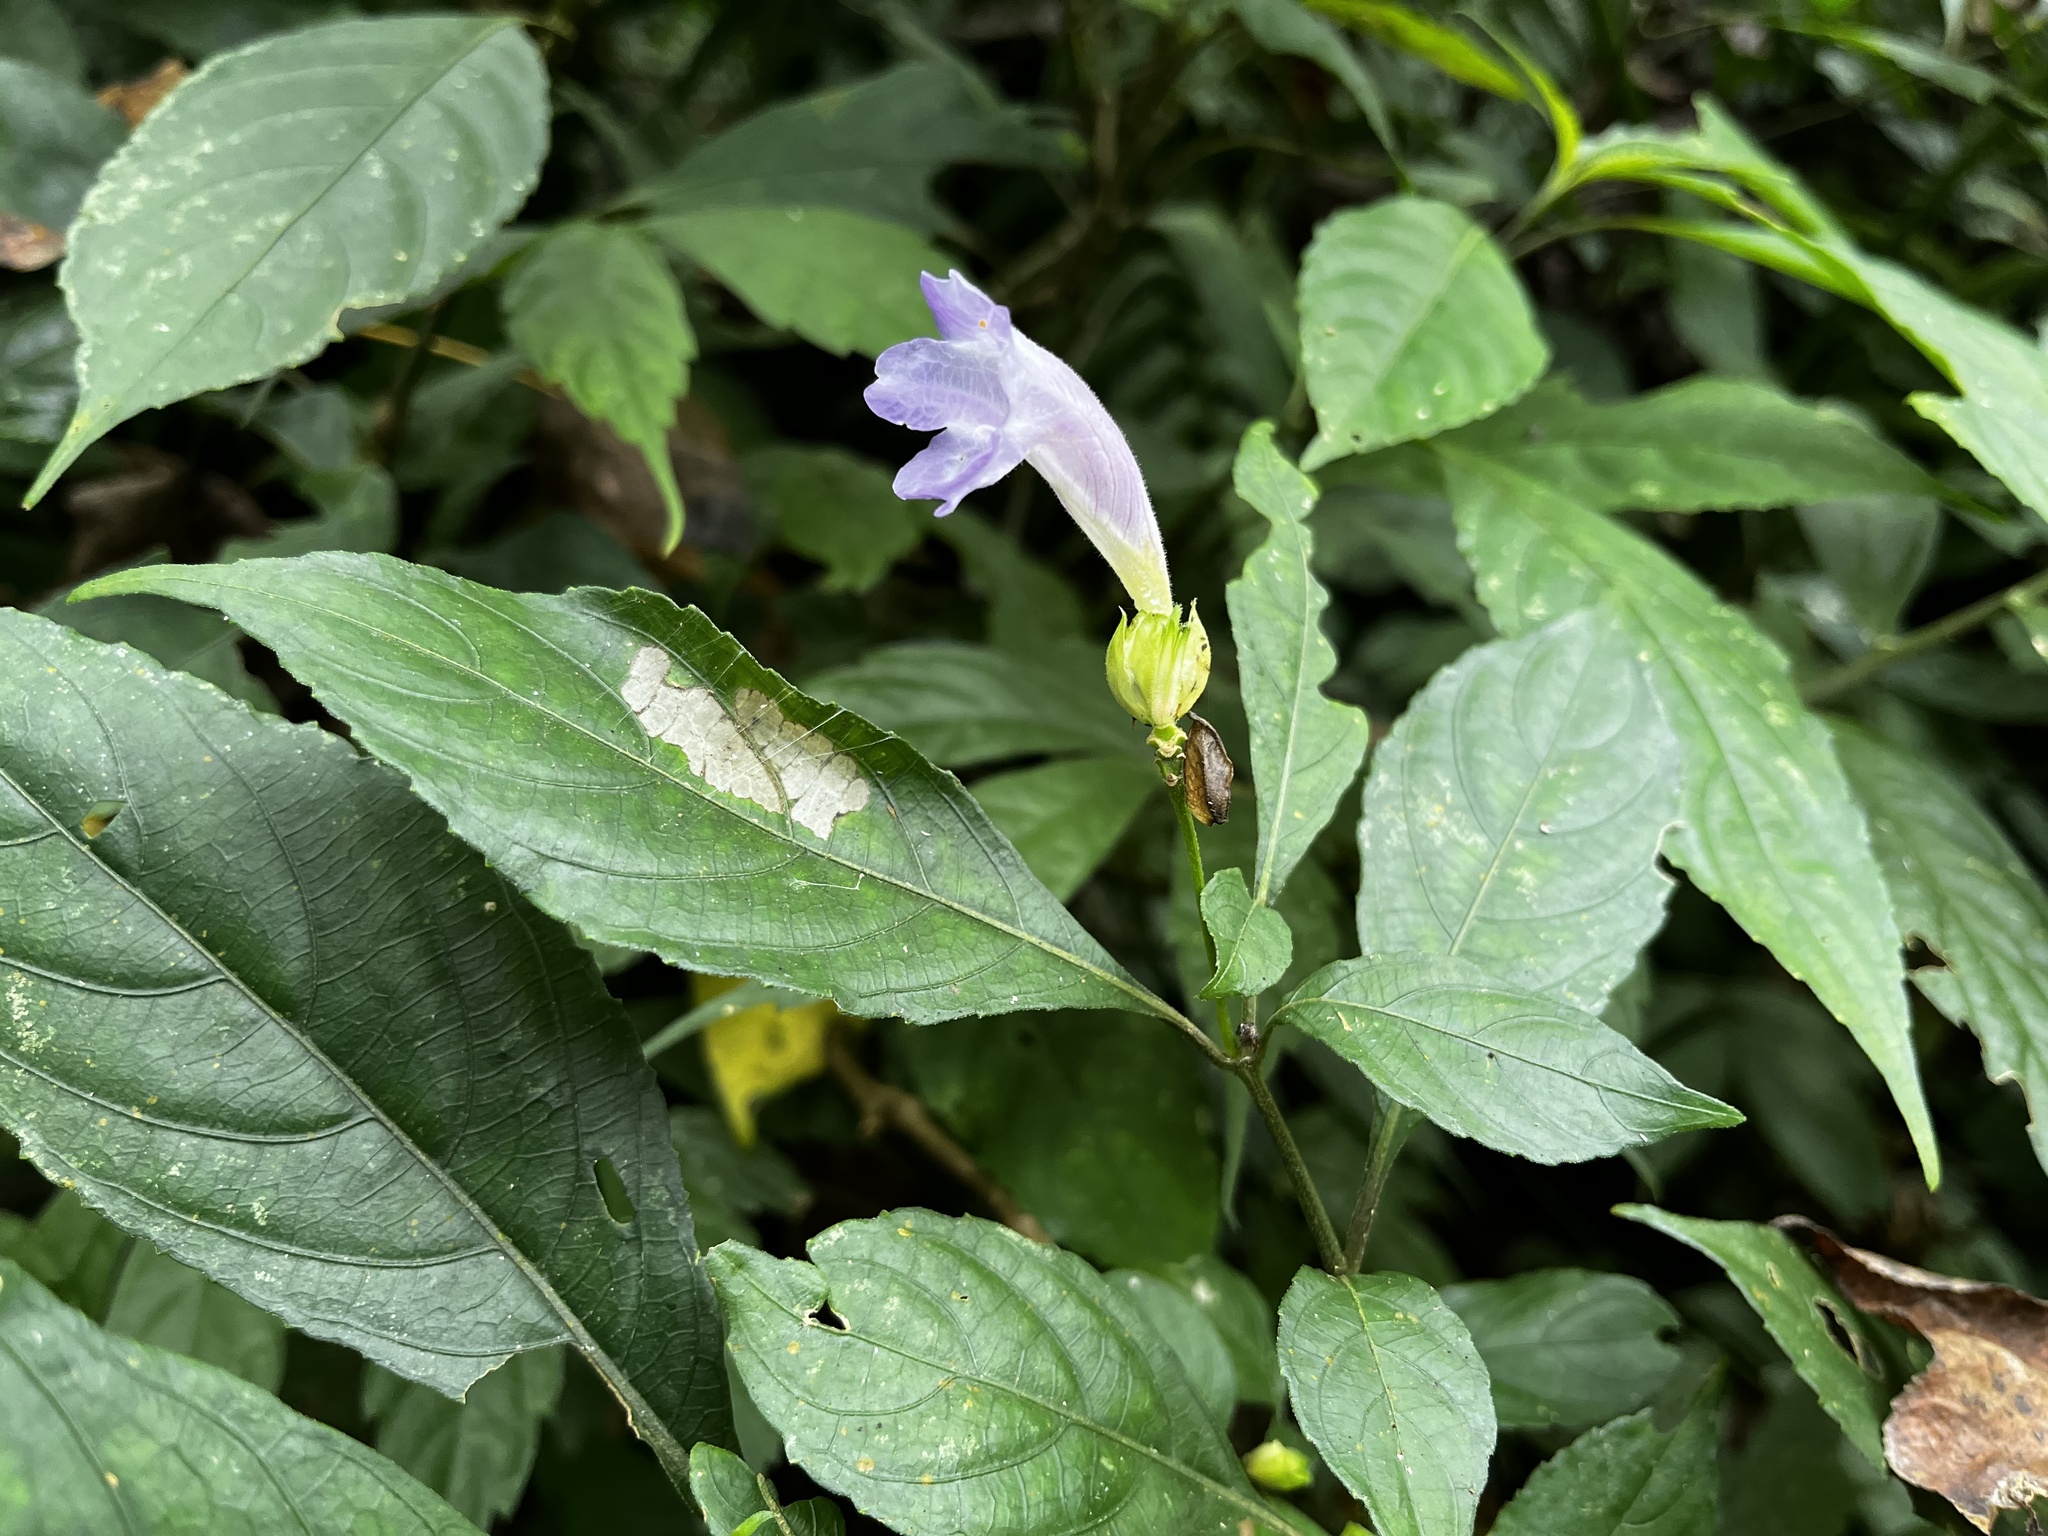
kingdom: Plantae
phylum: Tracheophyta
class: Magnoliopsida
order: Lamiales
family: Acanthaceae
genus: Strobilanthes
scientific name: Strobilanthes formosana
